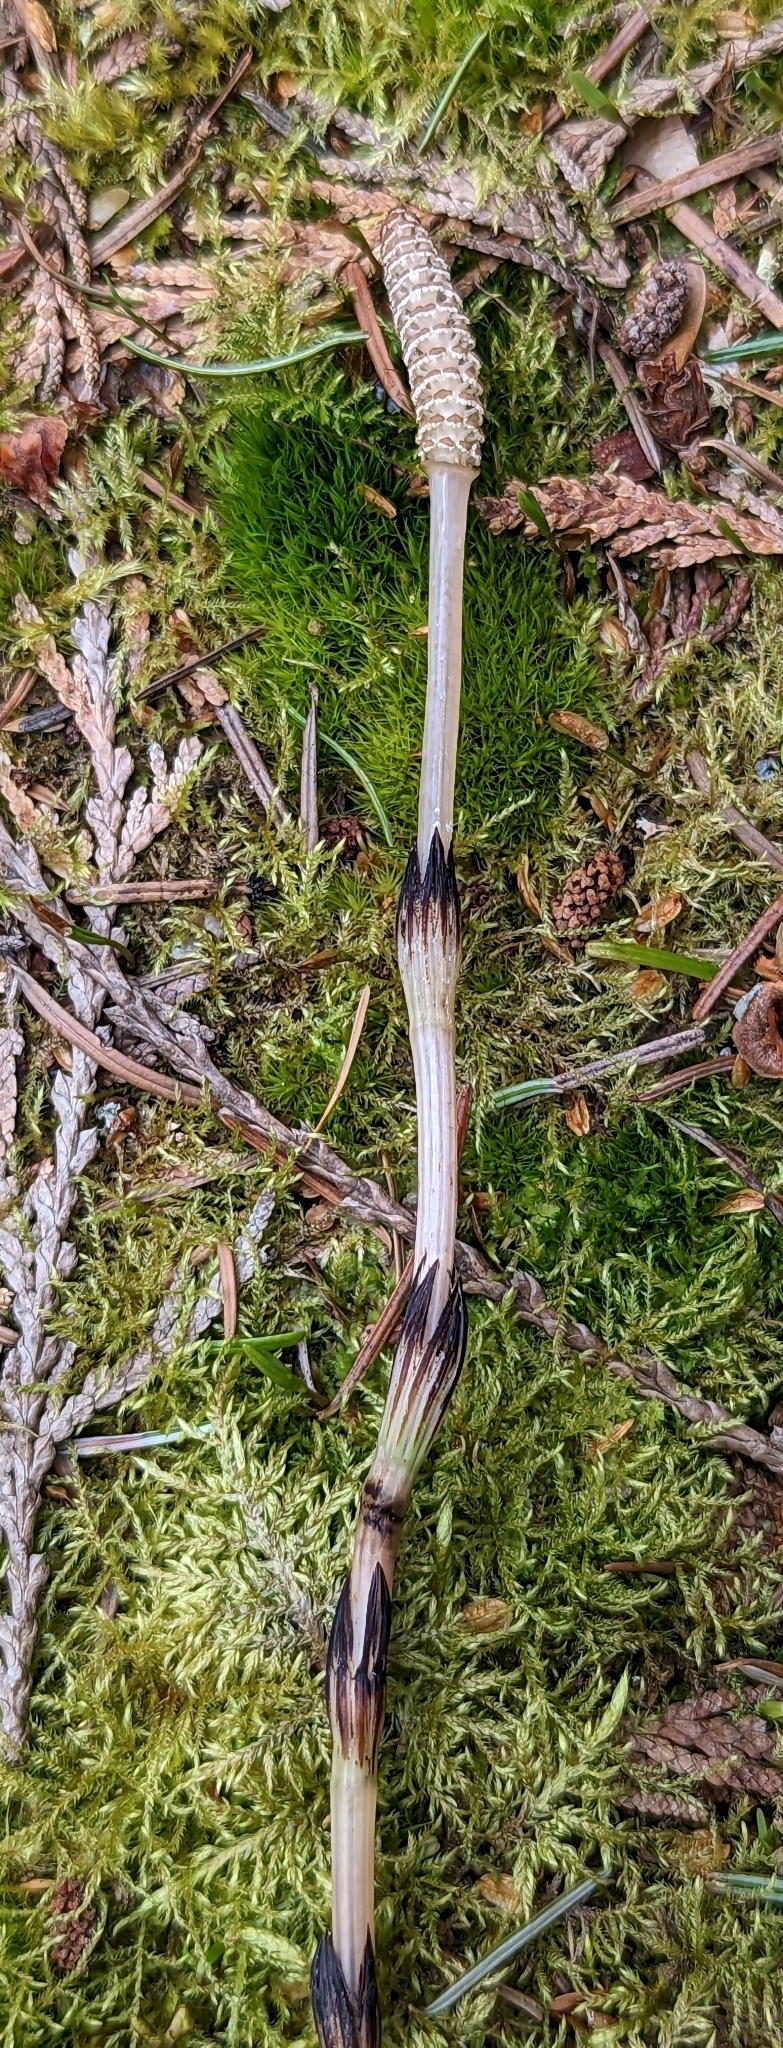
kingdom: Plantae
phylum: Tracheophyta
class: Polypodiopsida
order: Equisetales
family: Equisetaceae
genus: Equisetum
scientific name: Equisetum arvense
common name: Field horsetail
